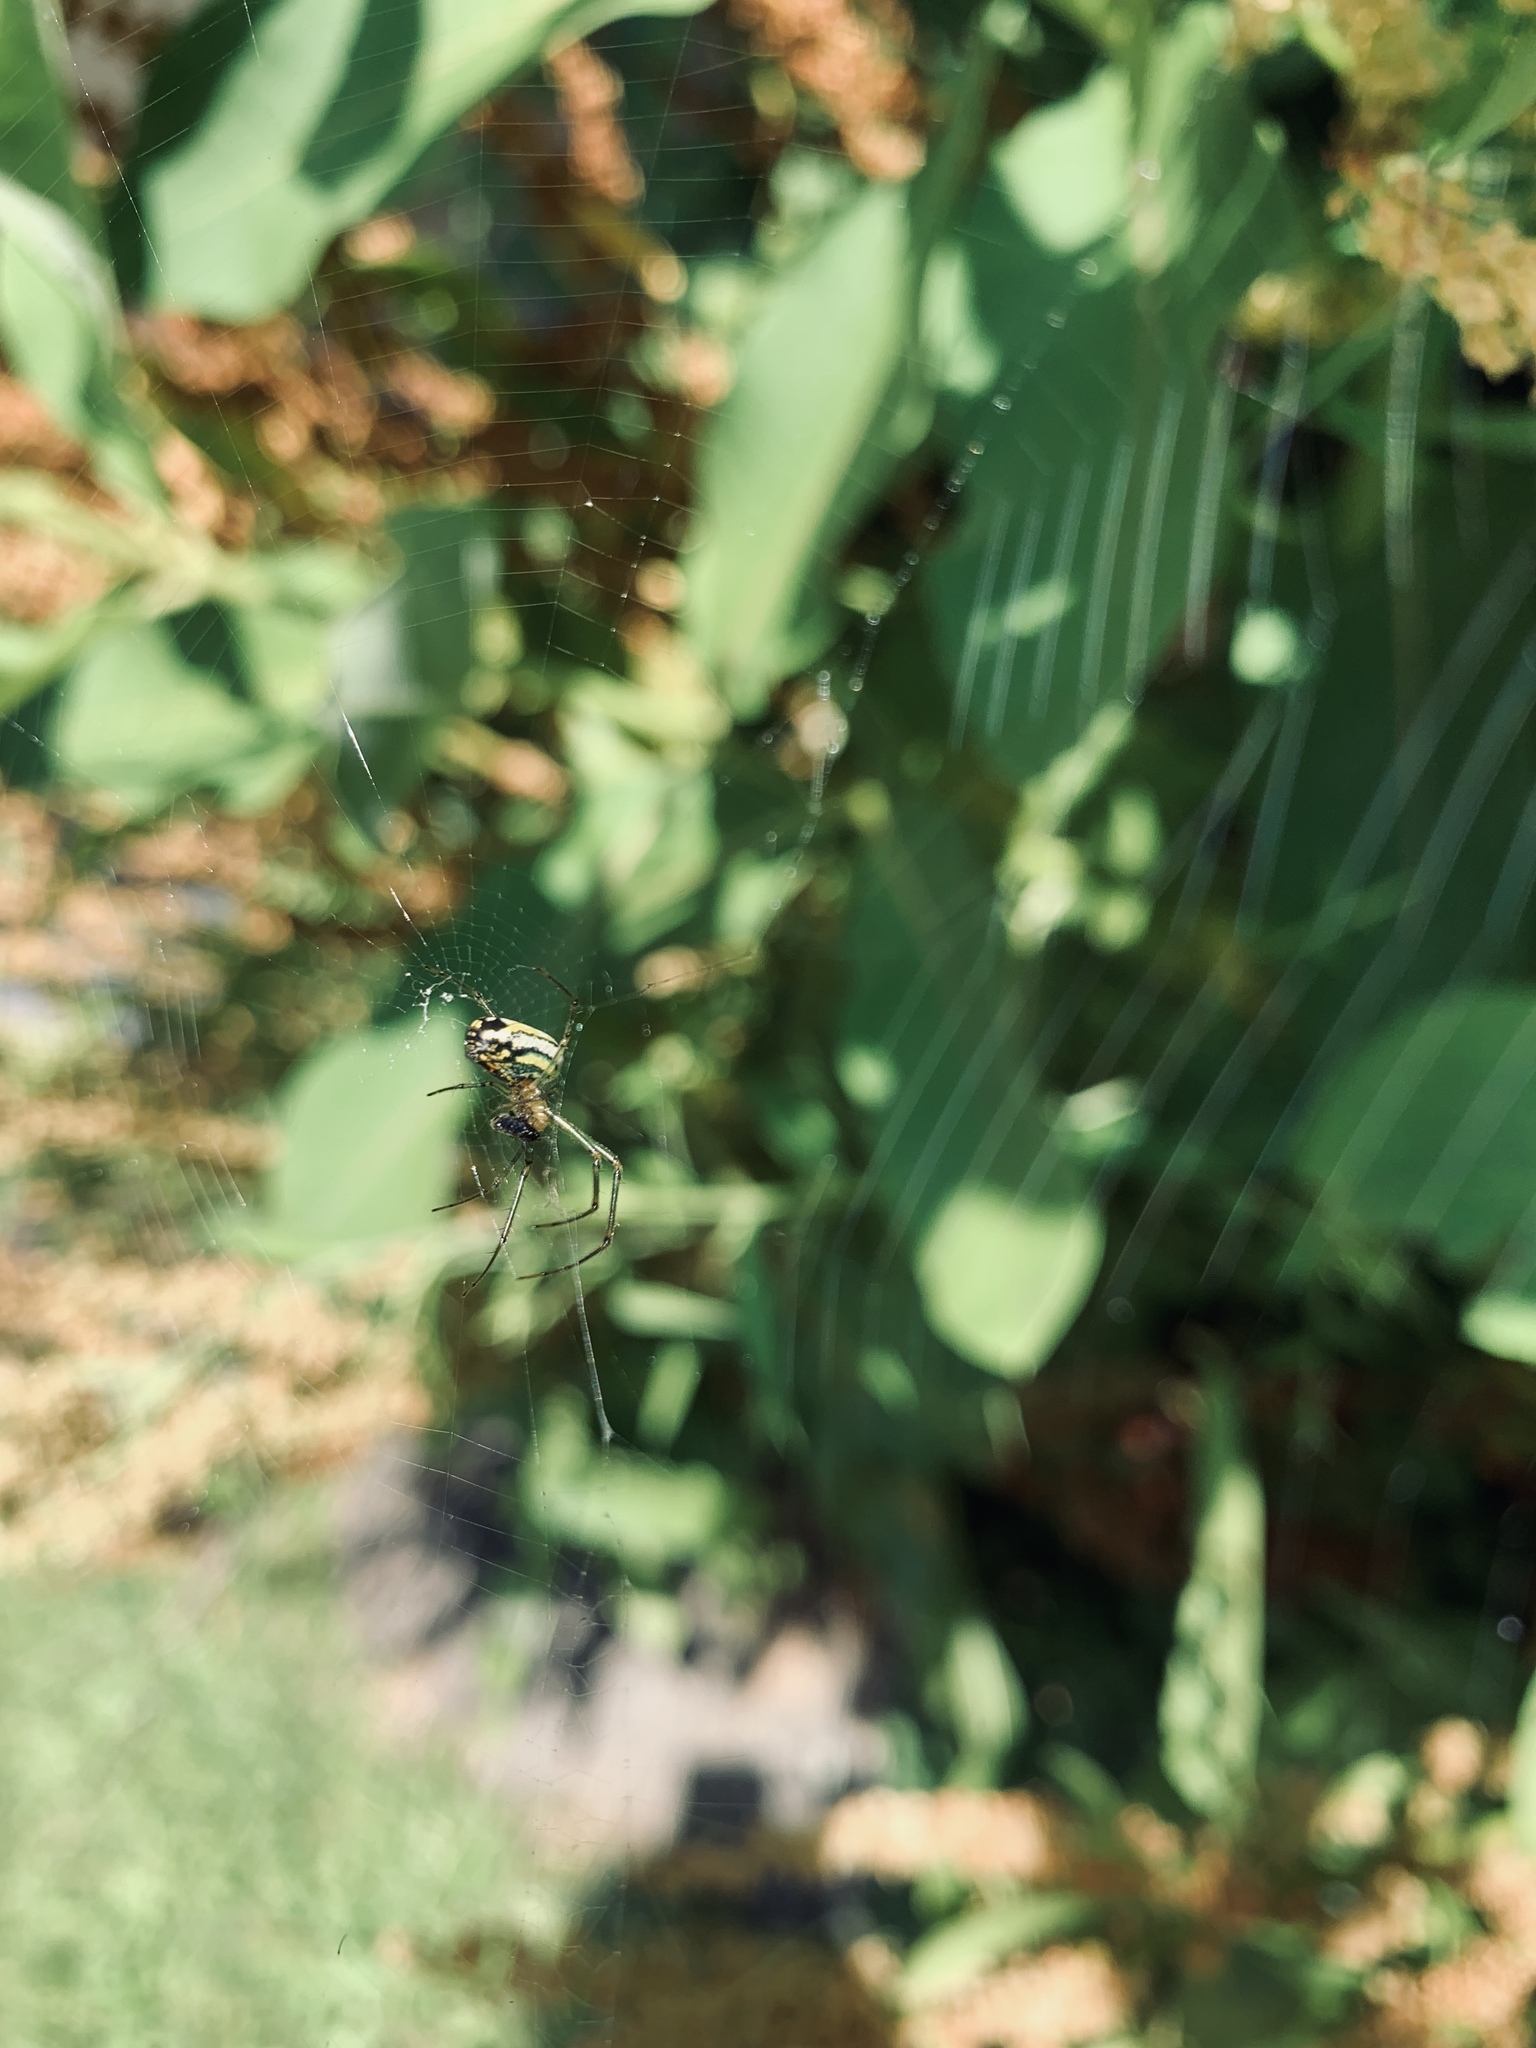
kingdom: Animalia
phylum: Arthropoda
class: Arachnida
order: Araneae
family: Tetragnathidae
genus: Leucauge
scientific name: Leucauge venusta
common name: Longjawed orb weavers
